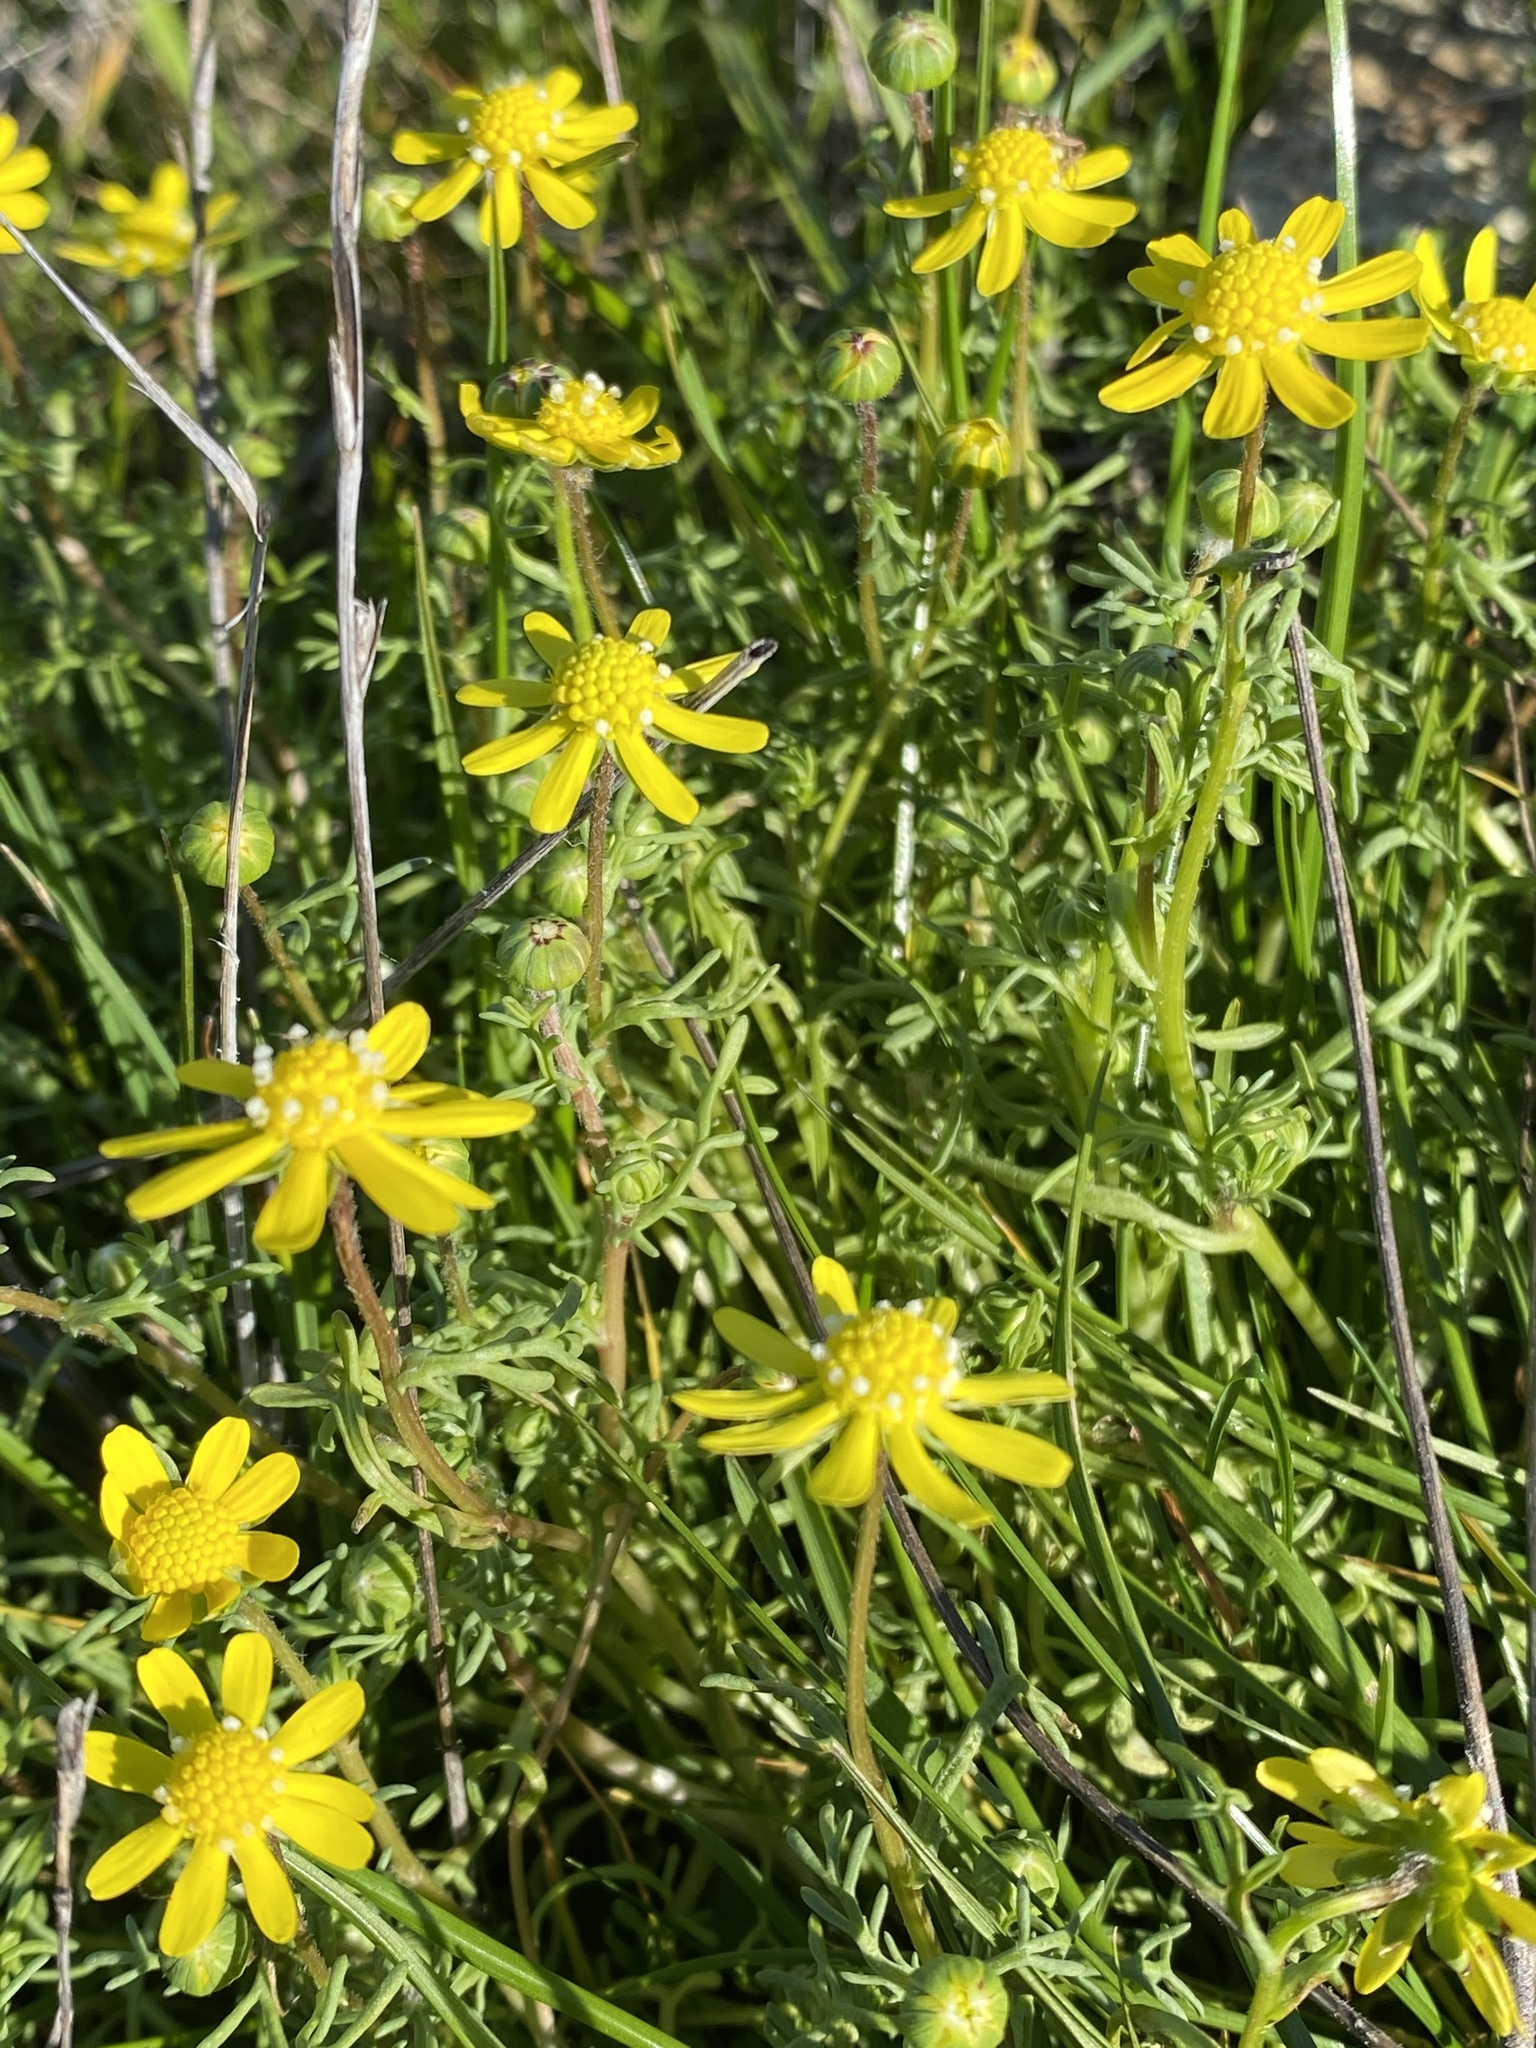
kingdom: Plantae
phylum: Tracheophyta
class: Magnoliopsida
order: Asterales
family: Asteraceae
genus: Blennosperma
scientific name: Blennosperma nanum
